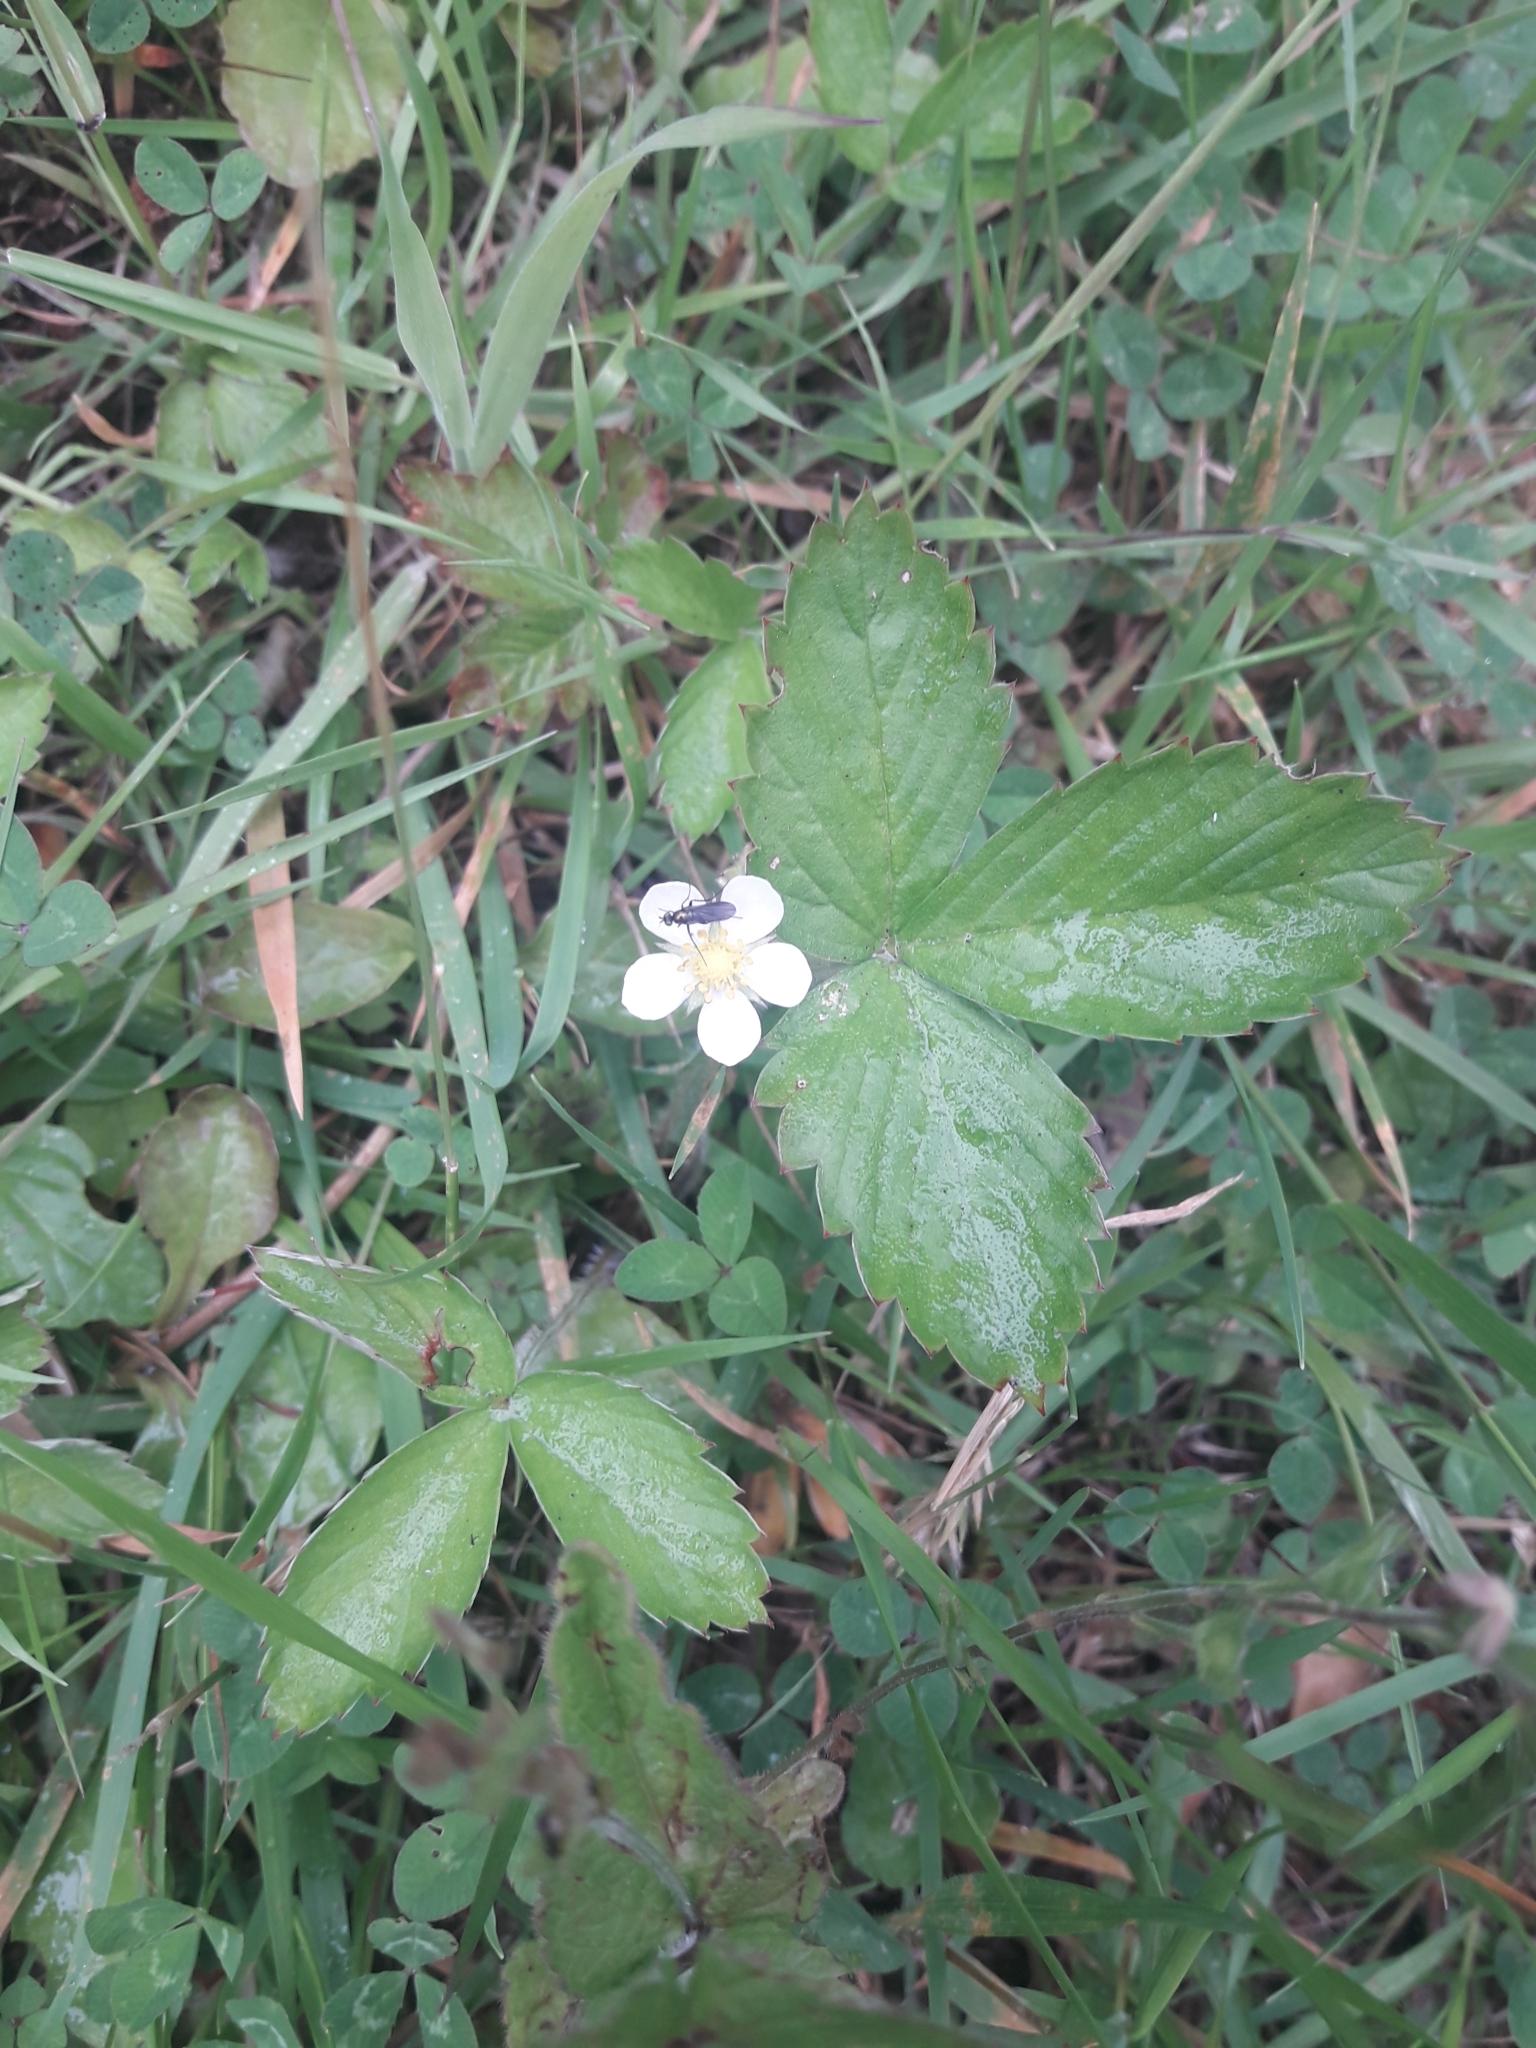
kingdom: Plantae
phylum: Tracheophyta
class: Magnoliopsida
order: Rosales
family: Rosaceae
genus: Potentilla
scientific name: Potentilla sterilis
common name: Barren strawberry
